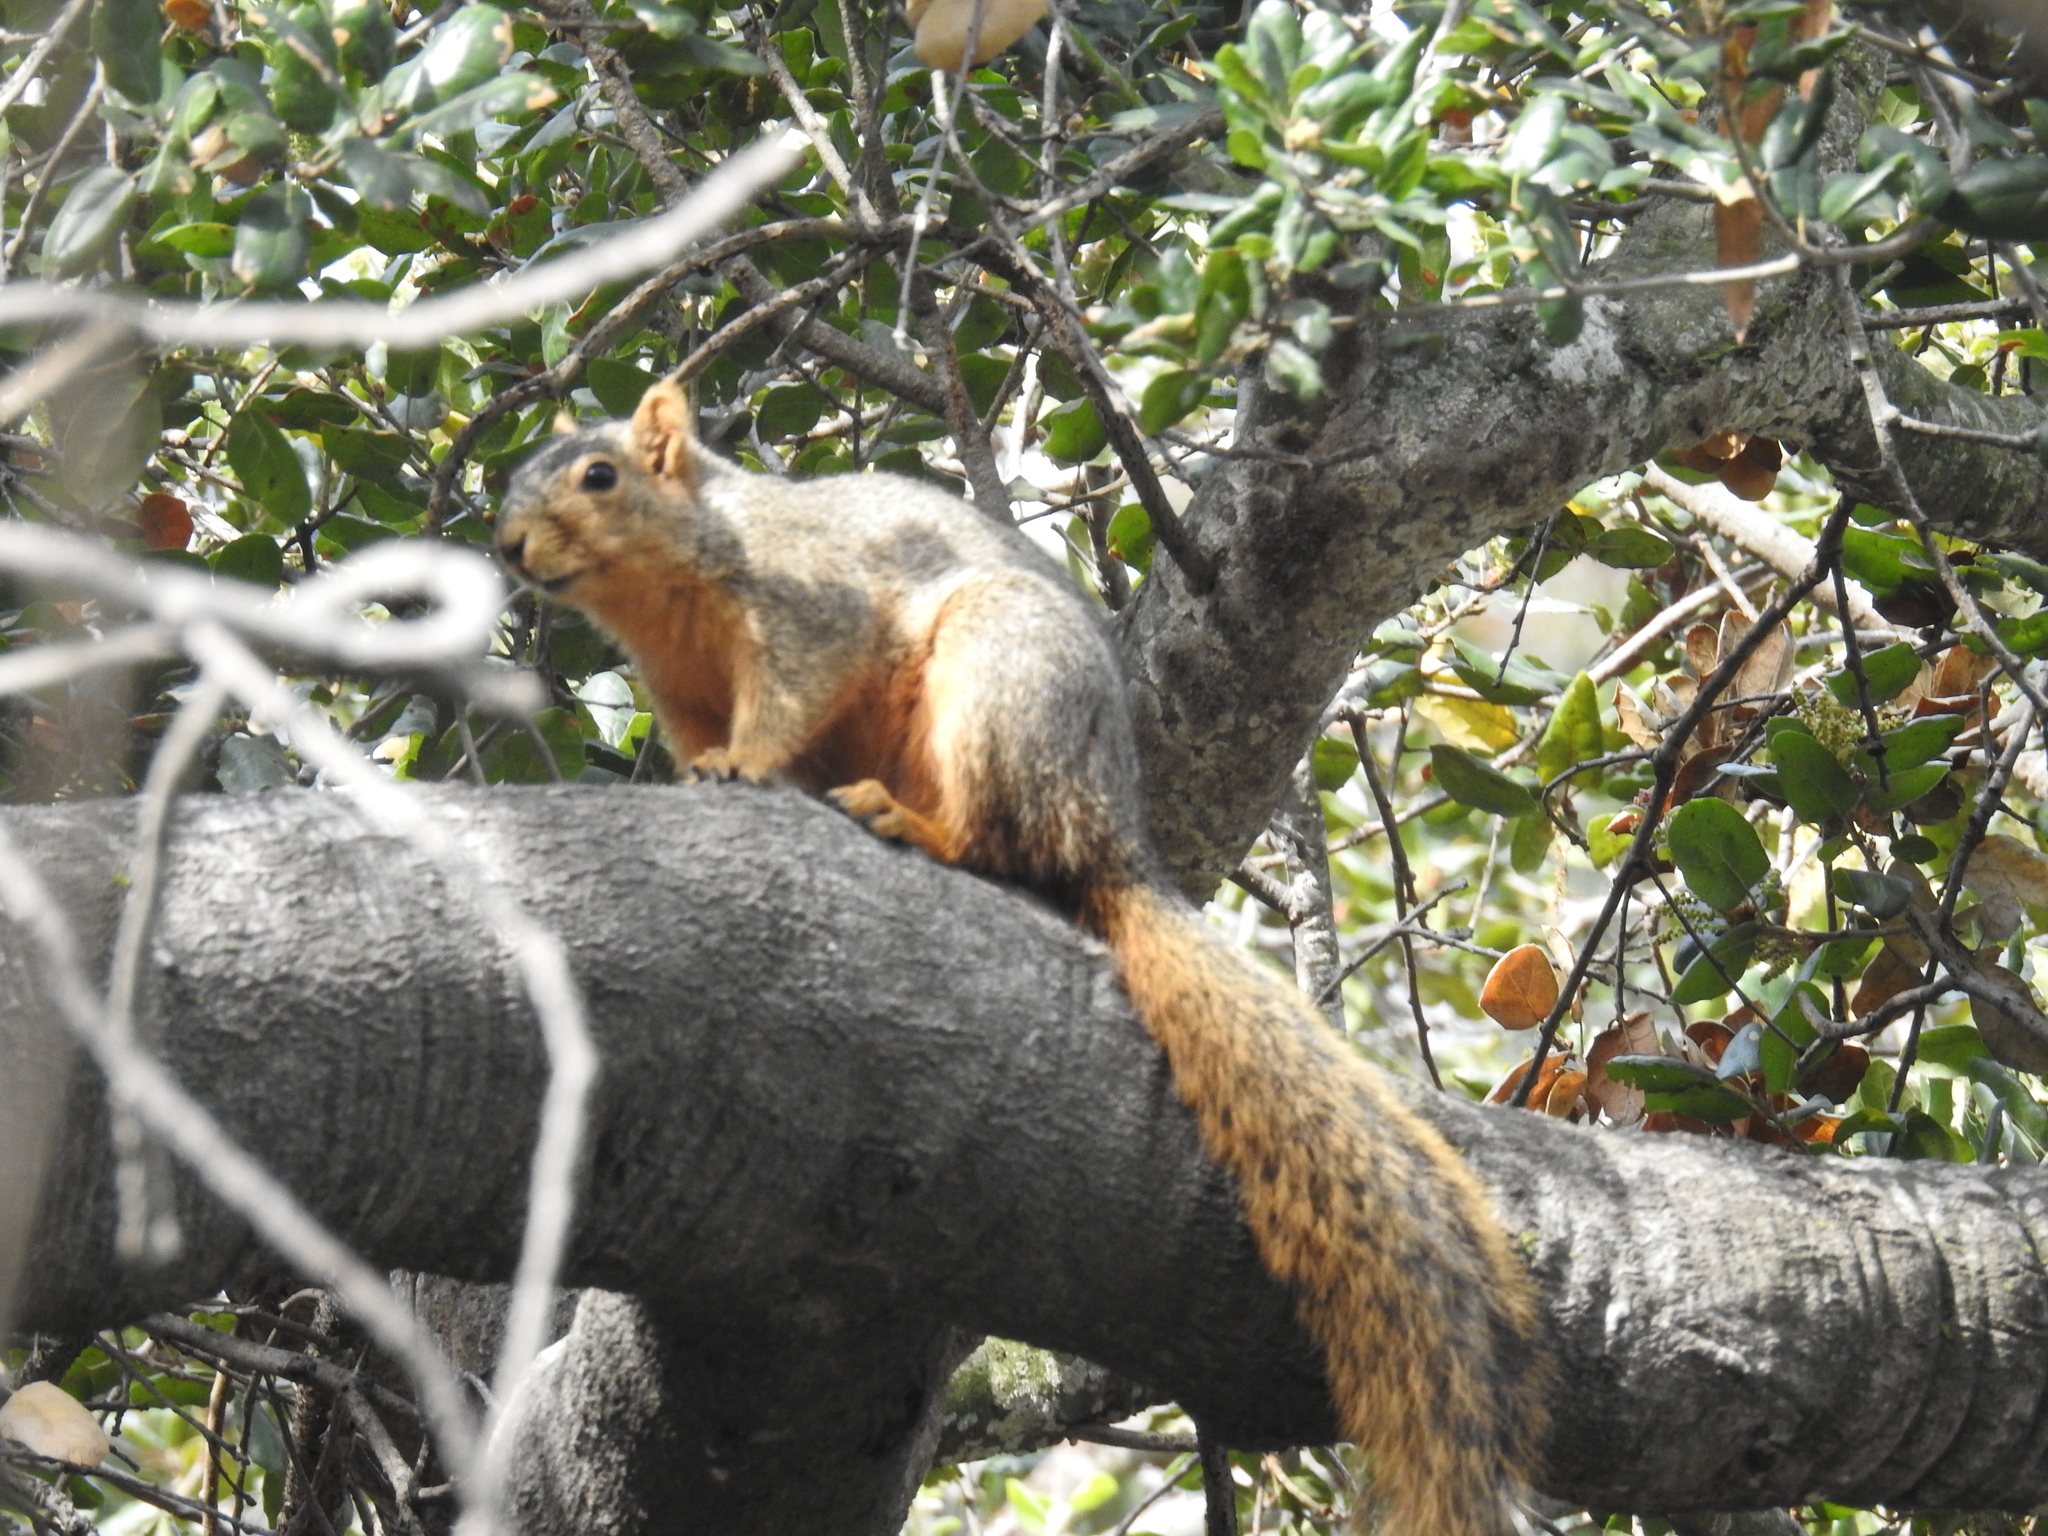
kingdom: Animalia
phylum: Chordata
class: Mammalia
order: Rodentia
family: Sciuridae
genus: Sciurus
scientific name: Sciurus niger
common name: Fox squirrel
